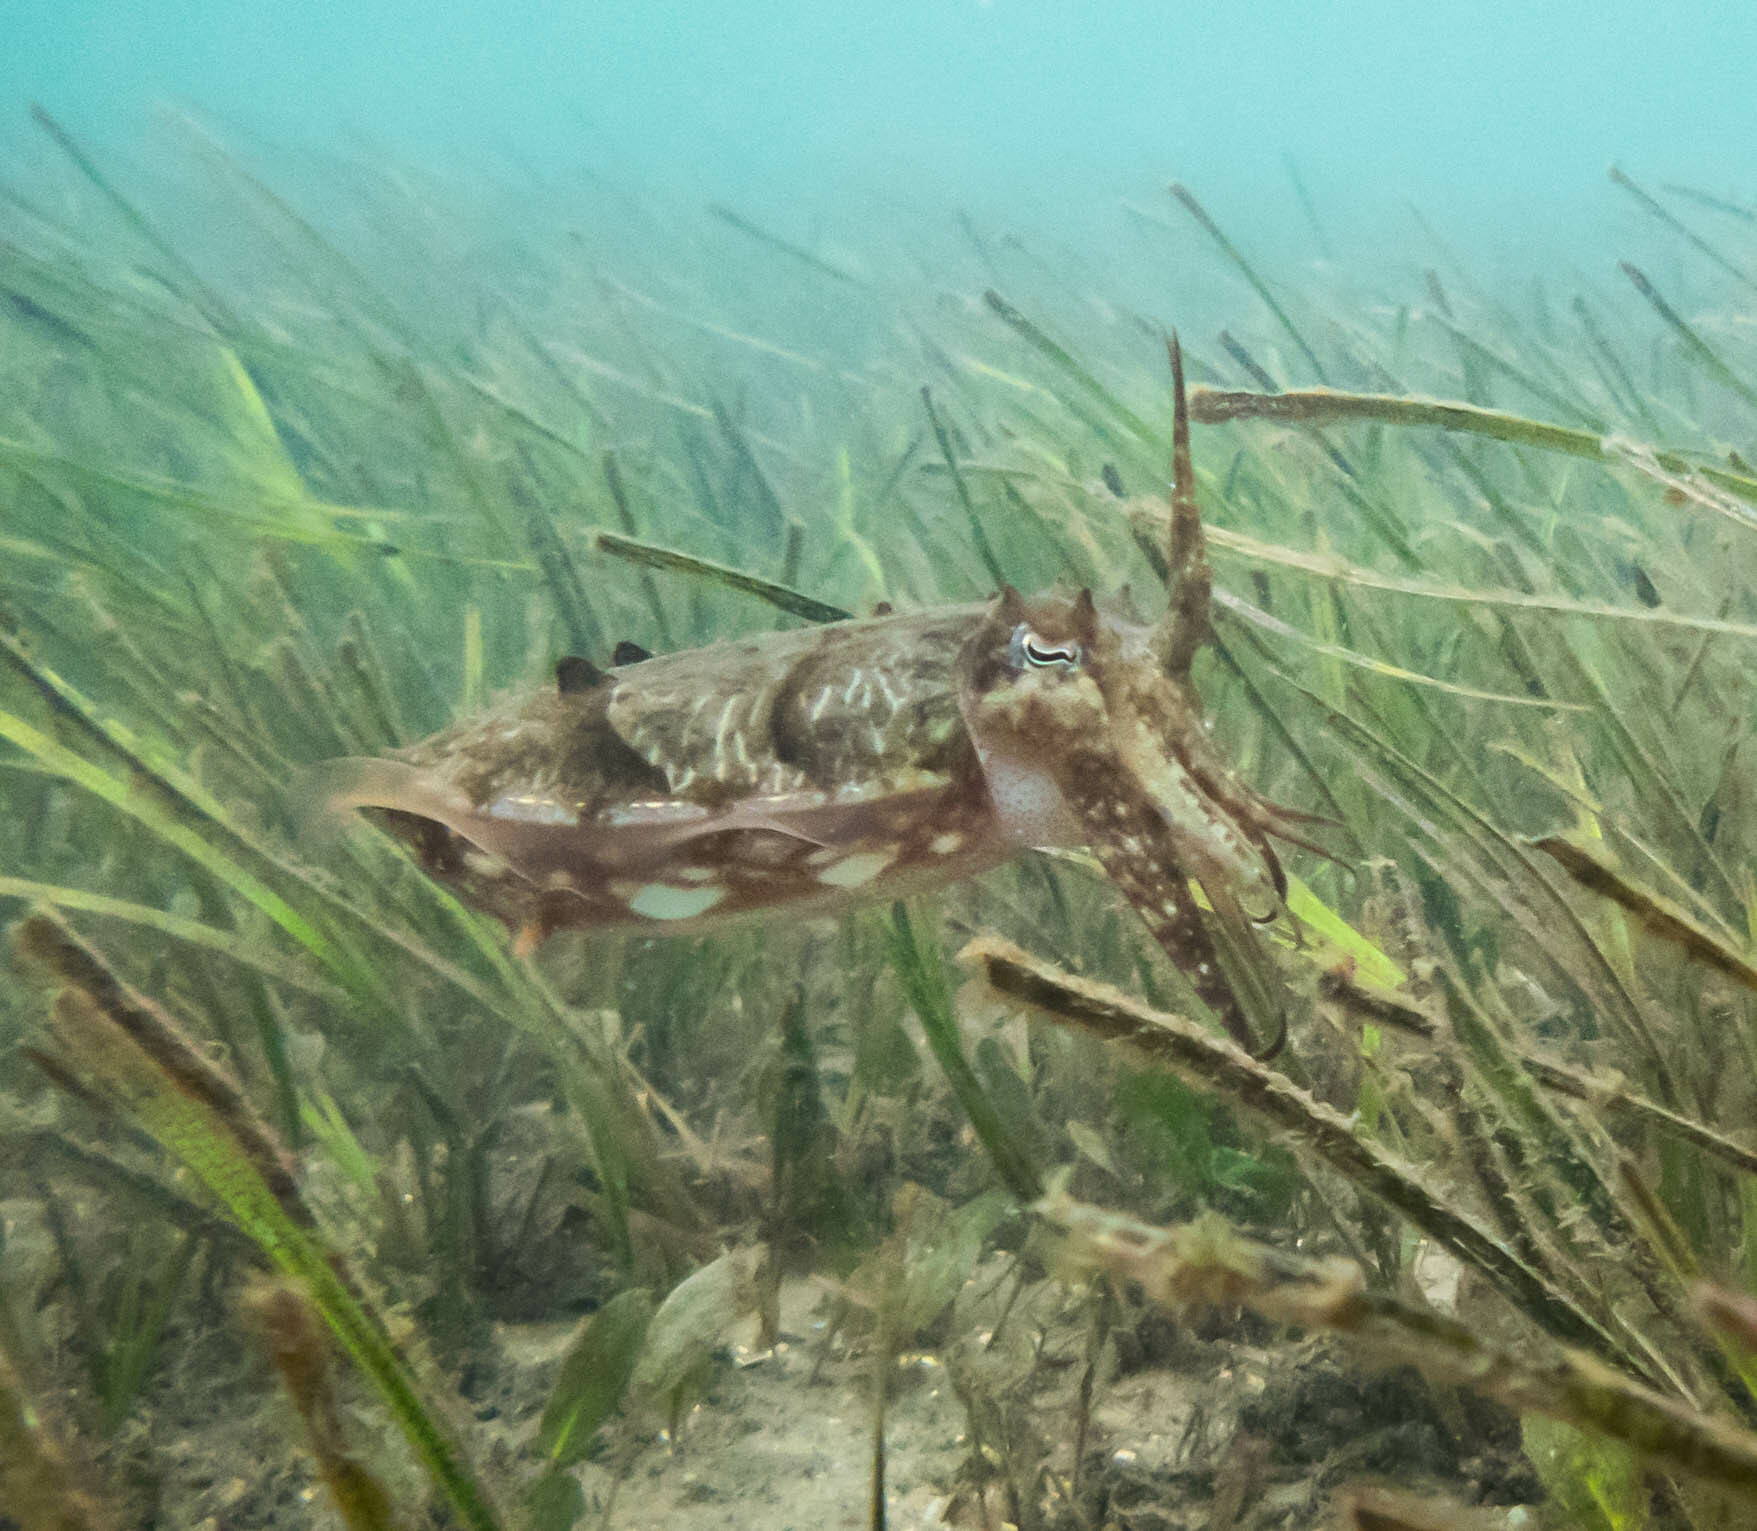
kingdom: Animalia
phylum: Mollusca
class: Cephalopoda
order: Sepiida
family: Sepiidae
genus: Ascarosepion
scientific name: Ascarosepion plangon
